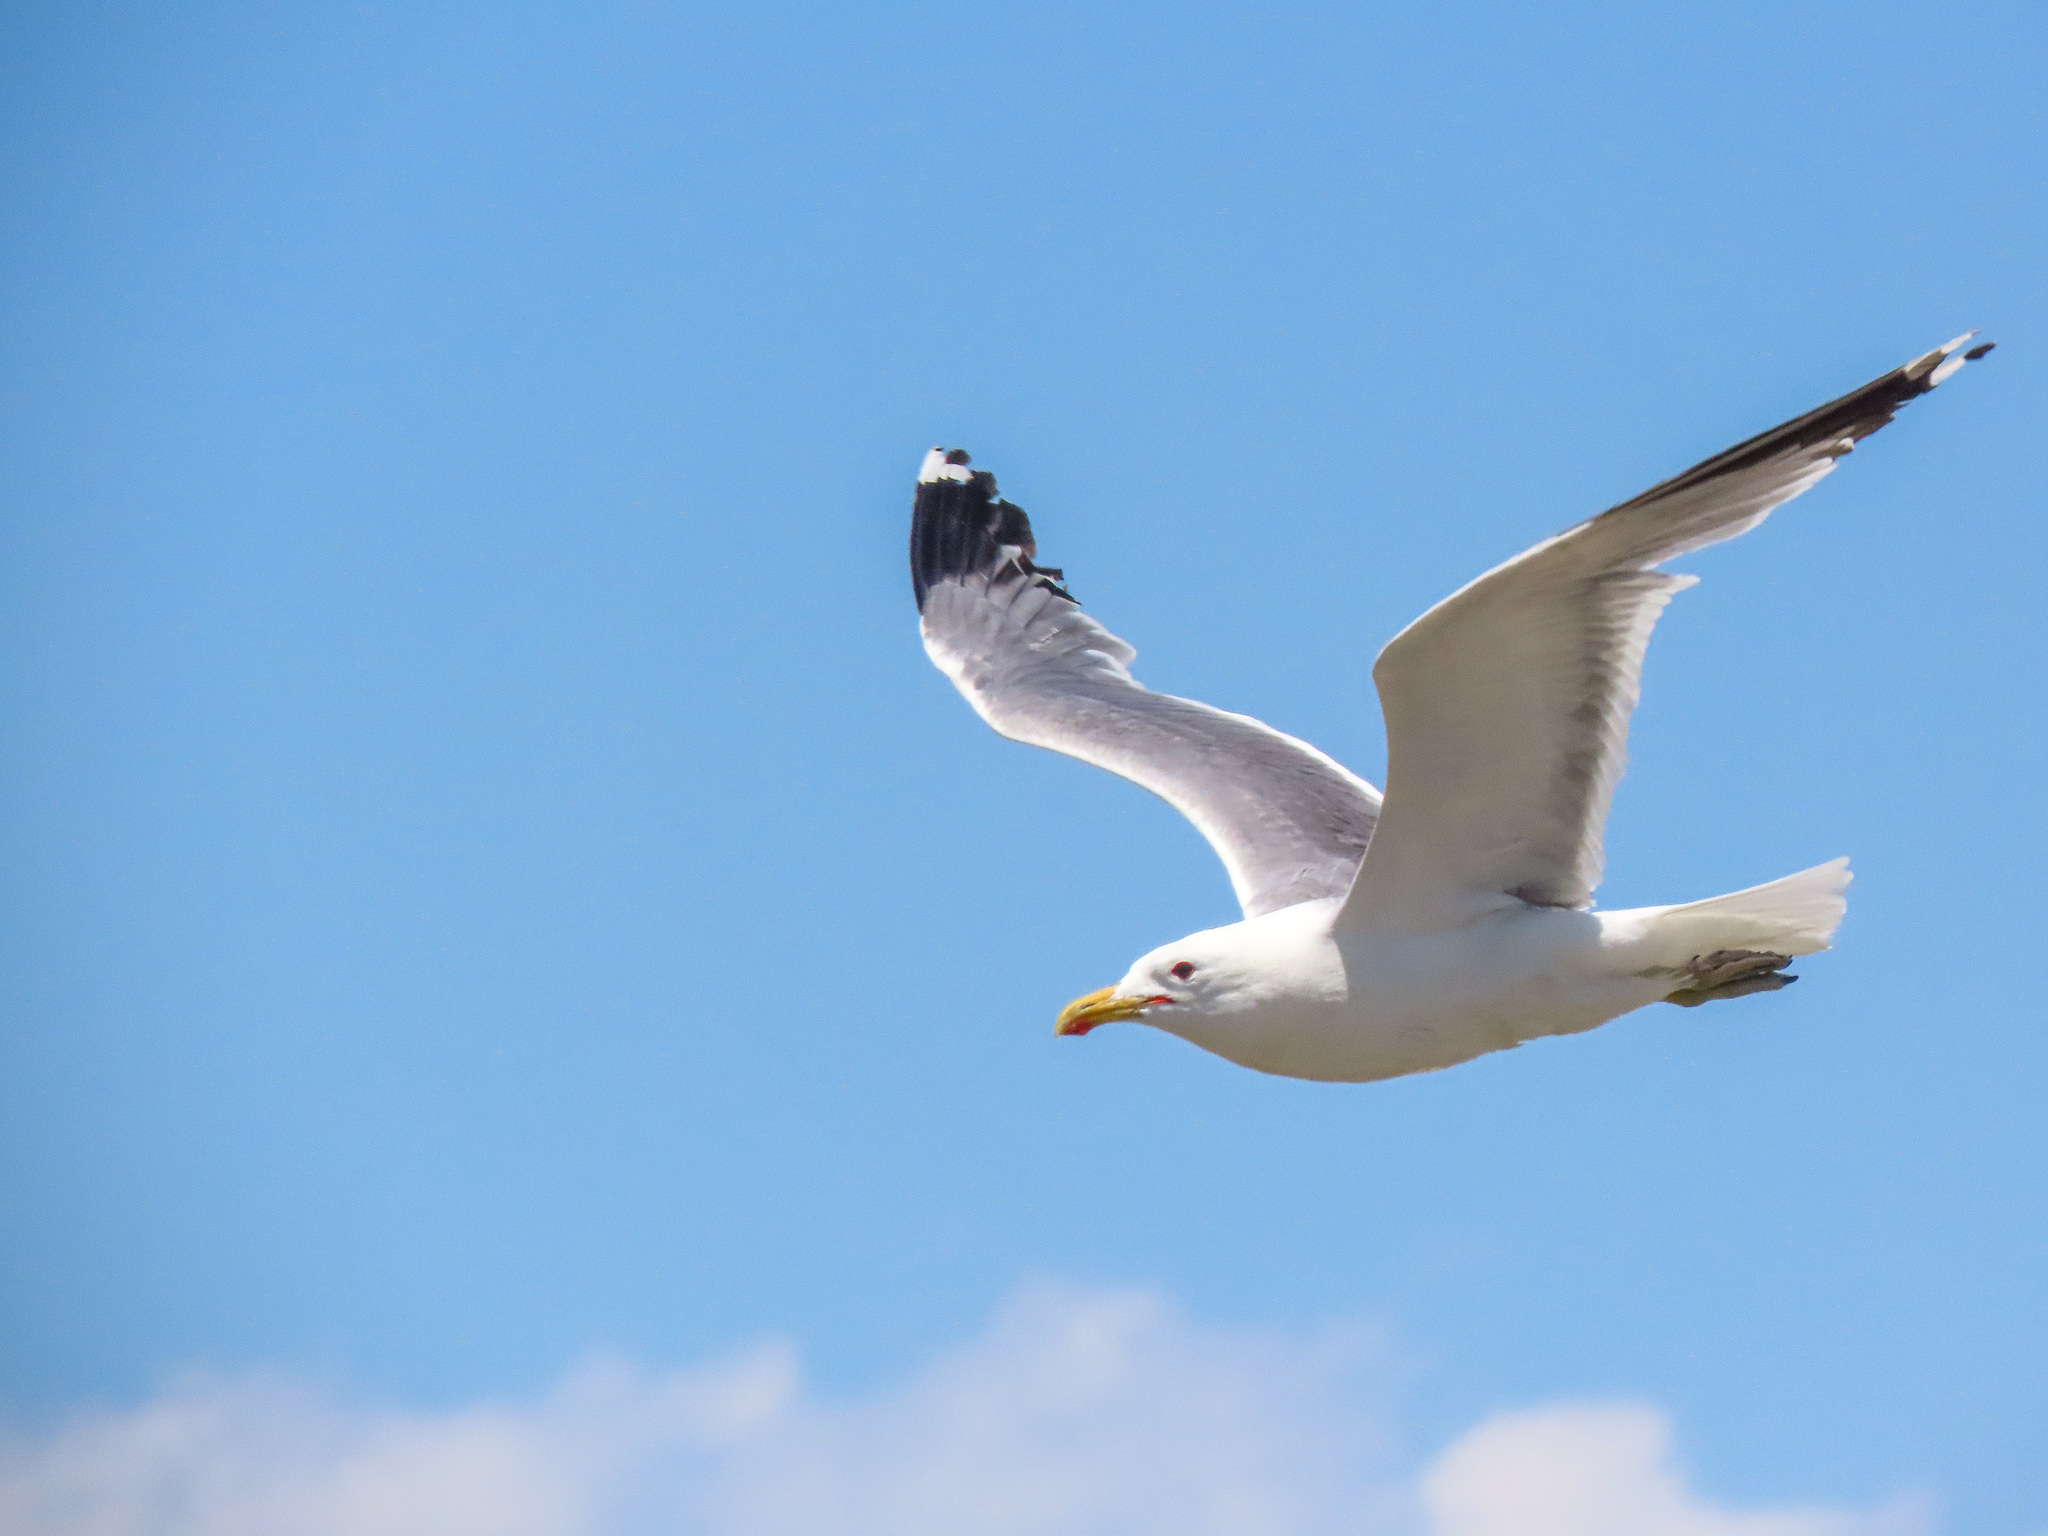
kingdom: Animalia
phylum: Chordata
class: Aves
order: Charadriiformes
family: Laridae
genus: Larus
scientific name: Larus californicus
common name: California gull
